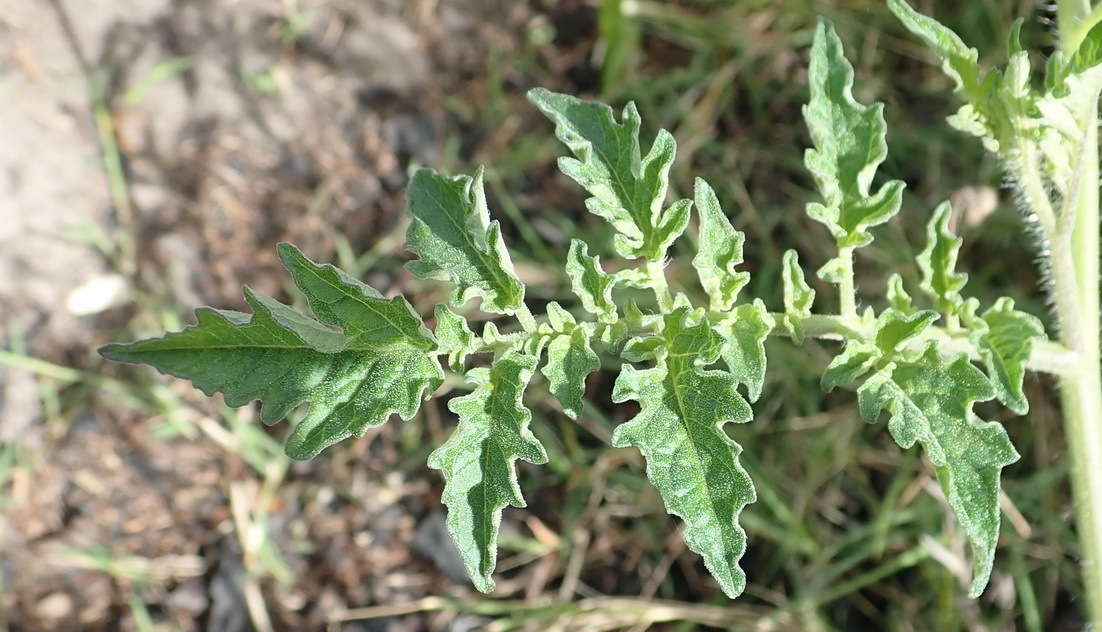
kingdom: Plantae
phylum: Tracheophyta
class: Magnoliopsida
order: Solanales
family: Solanaceae
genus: Solanum
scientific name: Solanum lycopersicum
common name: Garden tomato
